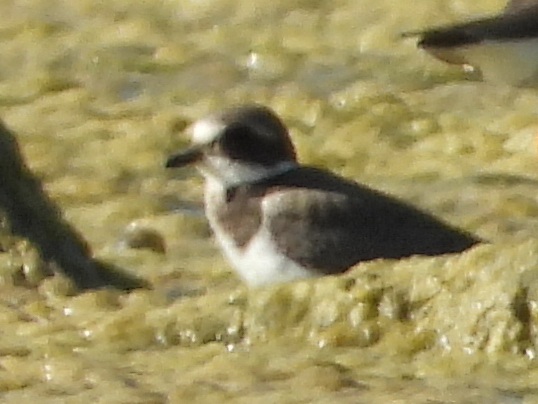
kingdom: Animalia
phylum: Chordata
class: Aves
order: Charadriiformes
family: Charadriidae
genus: Charadrius
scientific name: Charadrius hiaticula
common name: Common ringed plover
